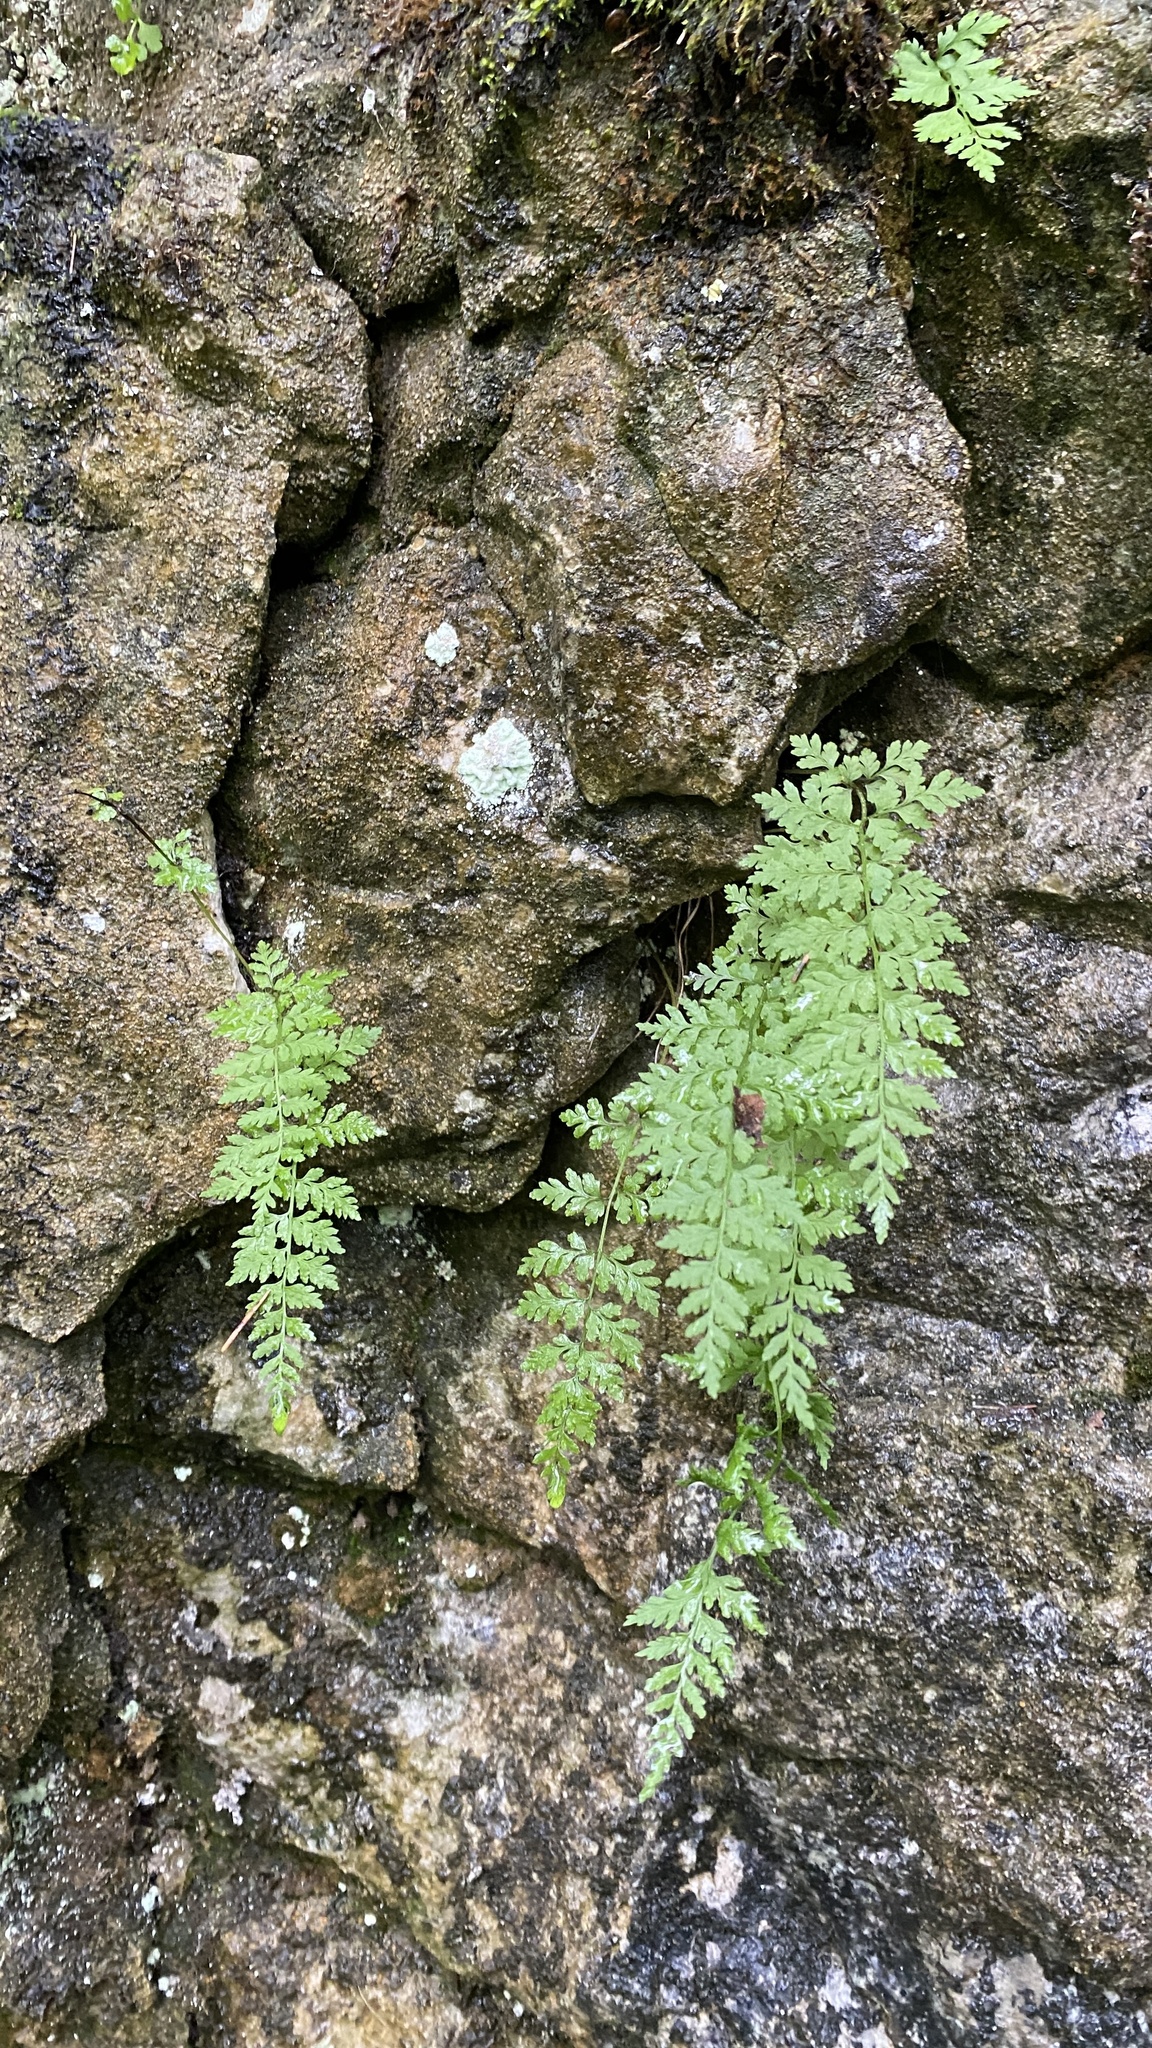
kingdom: Plantae
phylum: Tracheophyta
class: Polypodiopsida
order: Polypodiales
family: Cystopteridaceae
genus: Cystopteris
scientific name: Cystopteris fragilis
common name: Brittle bladder fern
